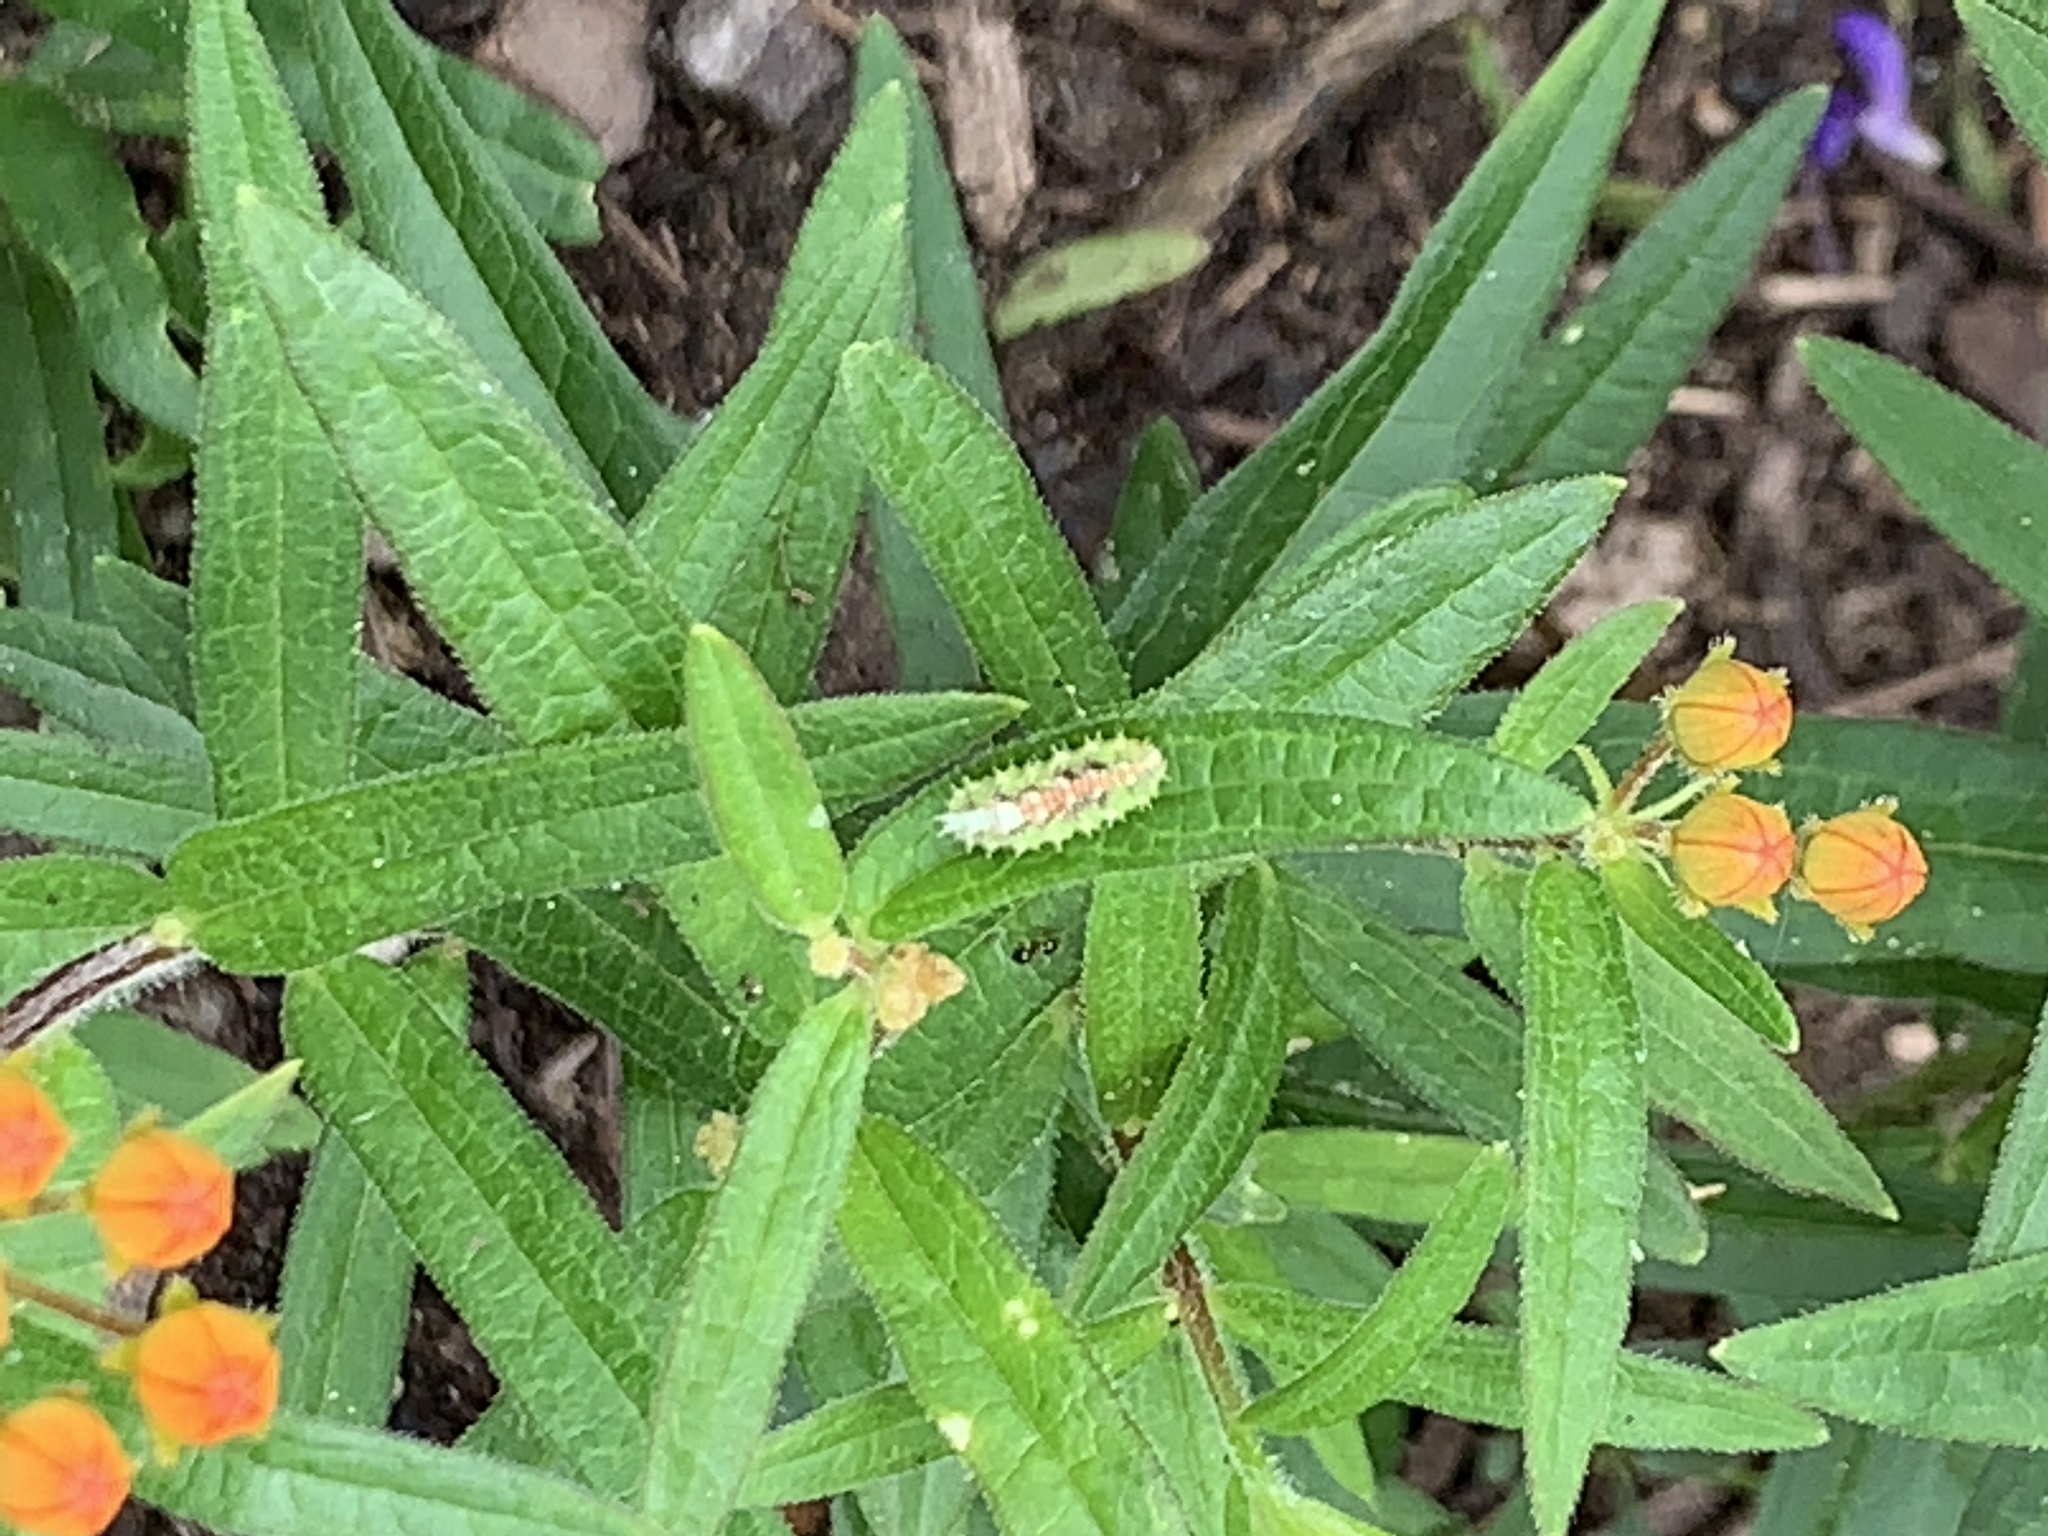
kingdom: Animalia
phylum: Arthropoda
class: Insecta
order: Diptera
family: Syrphidae
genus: Dioprosopa
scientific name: Dioprosopa clavatus
